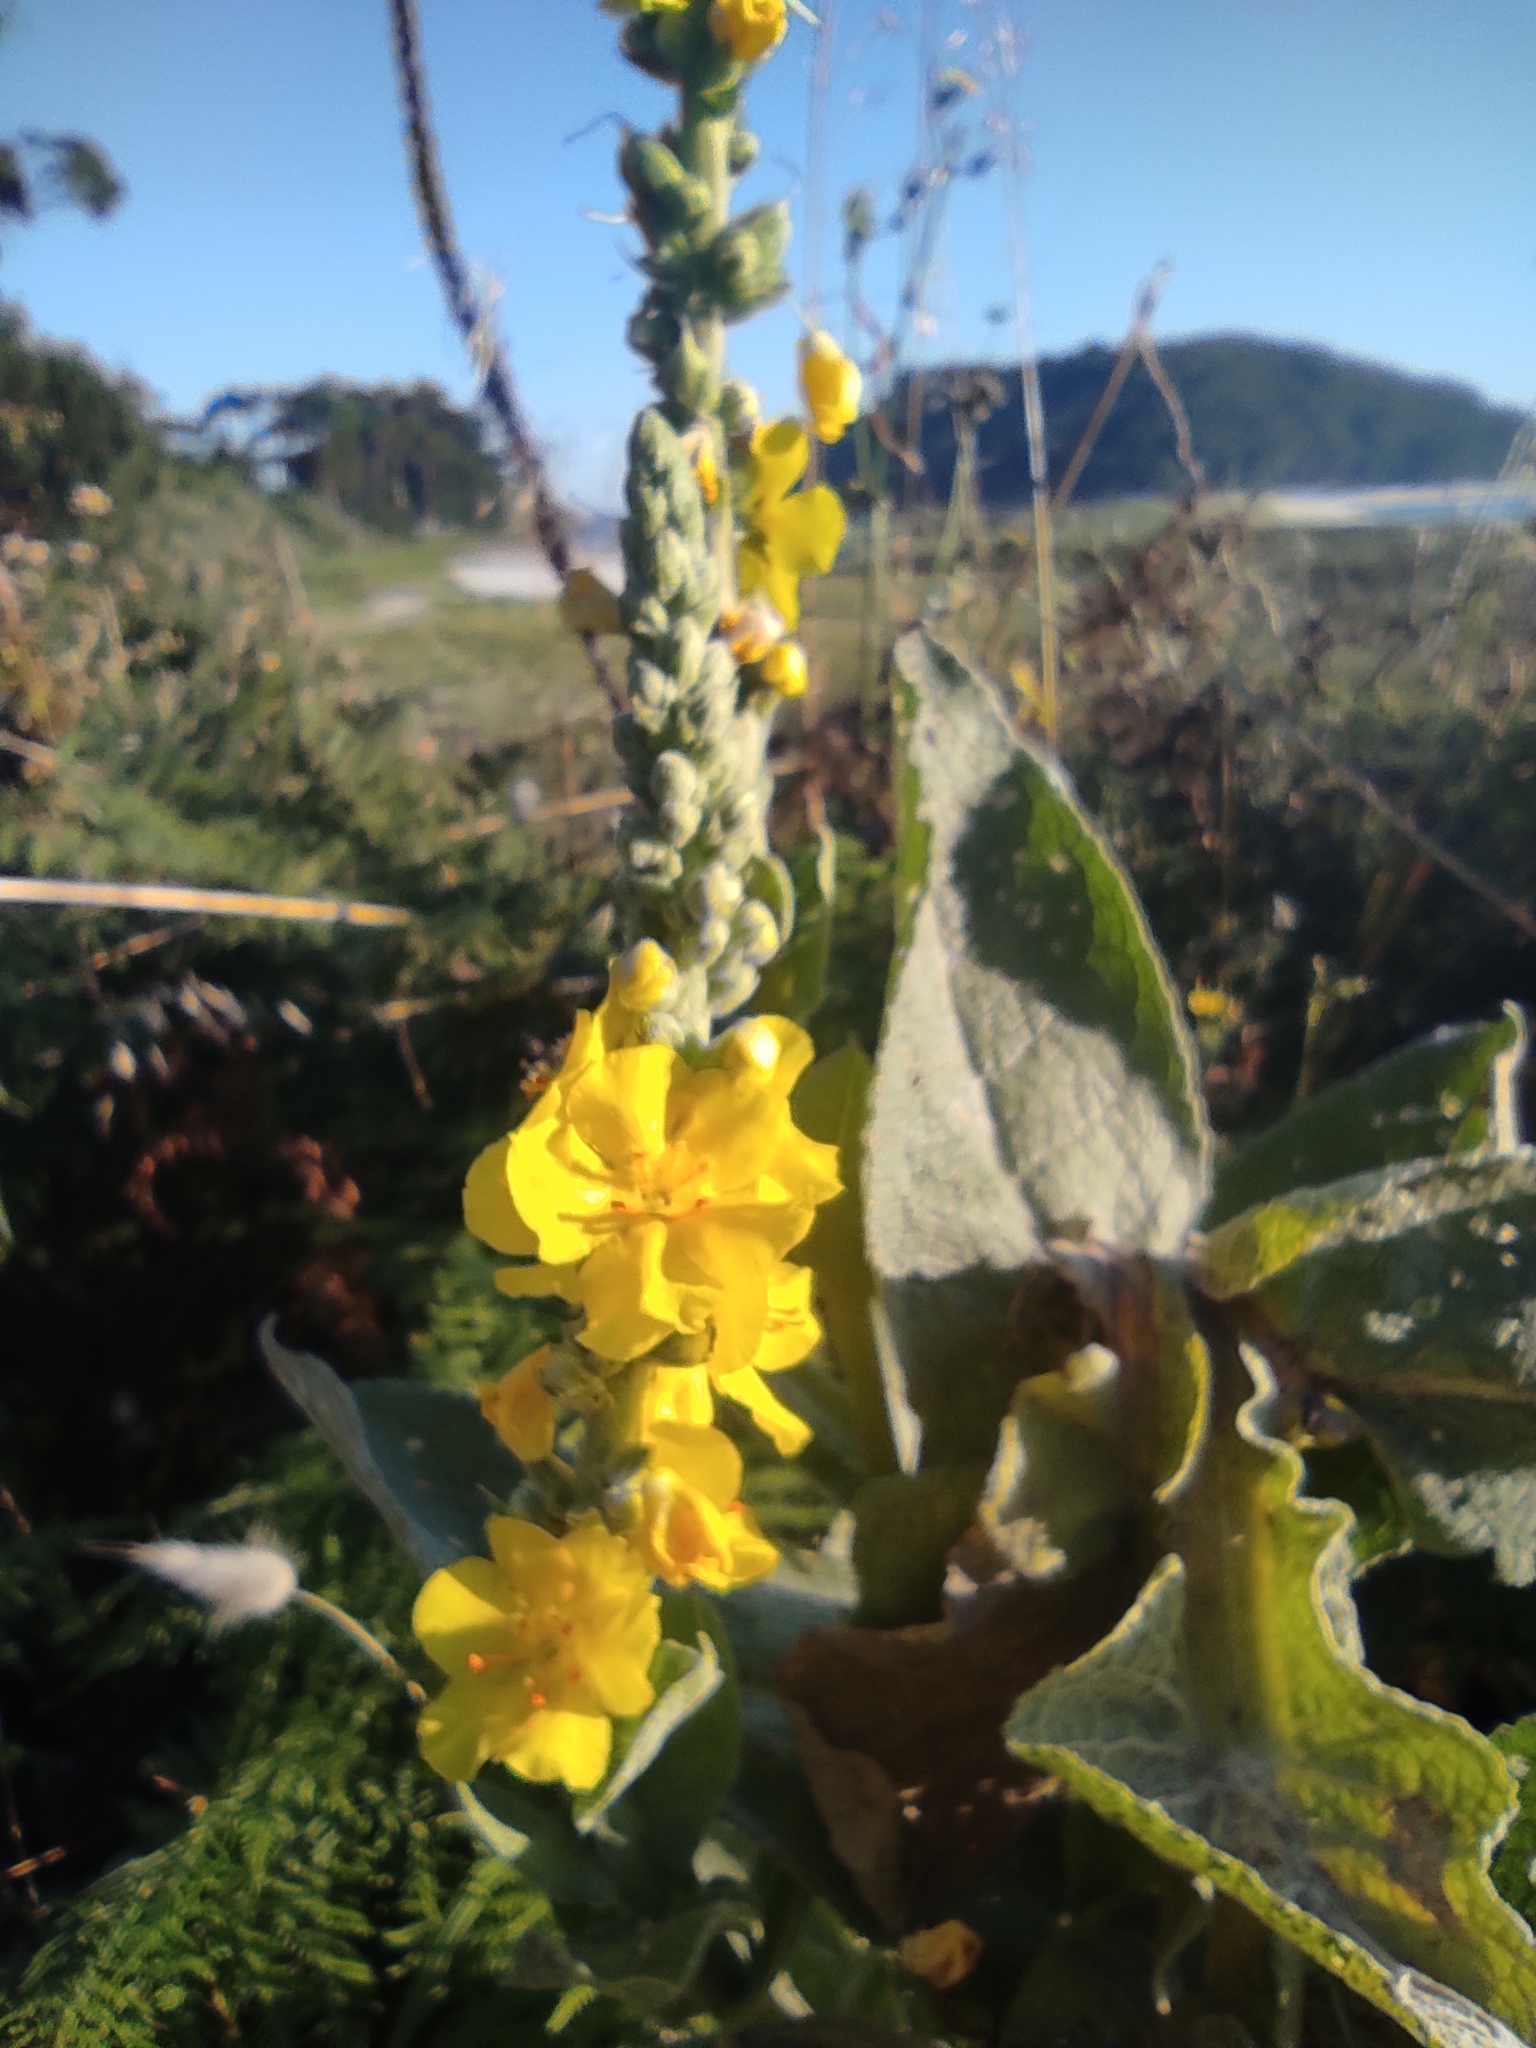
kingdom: Plantae
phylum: Tracheophyta
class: Magnoliopsida
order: Lamiales
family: Scrophulariaceae
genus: Verbascum
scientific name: Verbascum phlomoides
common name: Orange mullein
